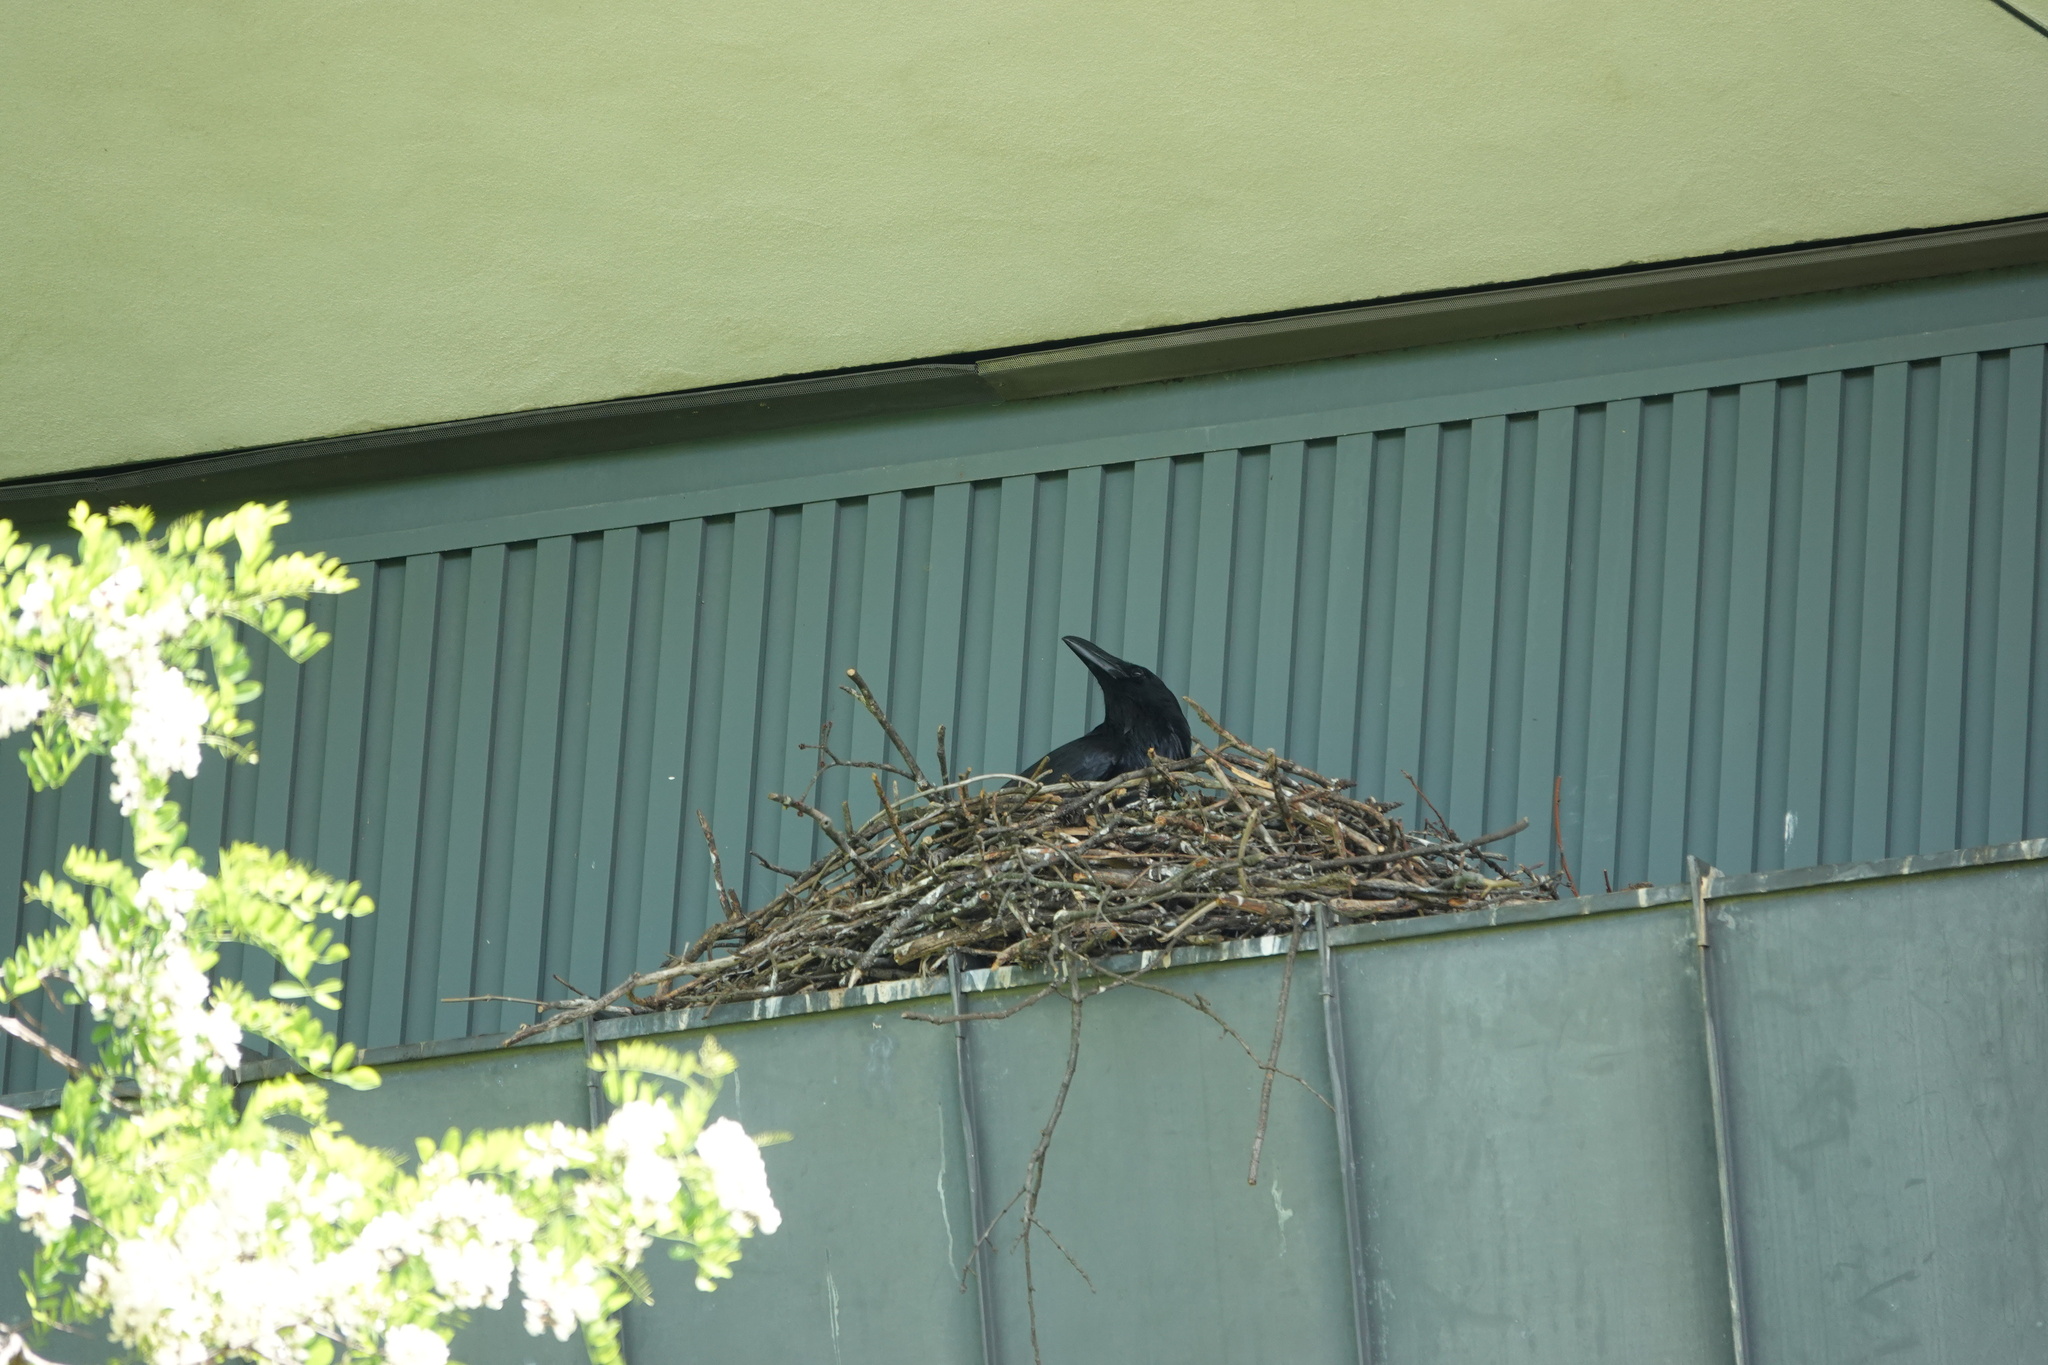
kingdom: Animalia
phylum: Chordata
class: Aves
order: Passeriformes
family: Corvidae
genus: Corvus
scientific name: Corvus corax
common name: Common raven
